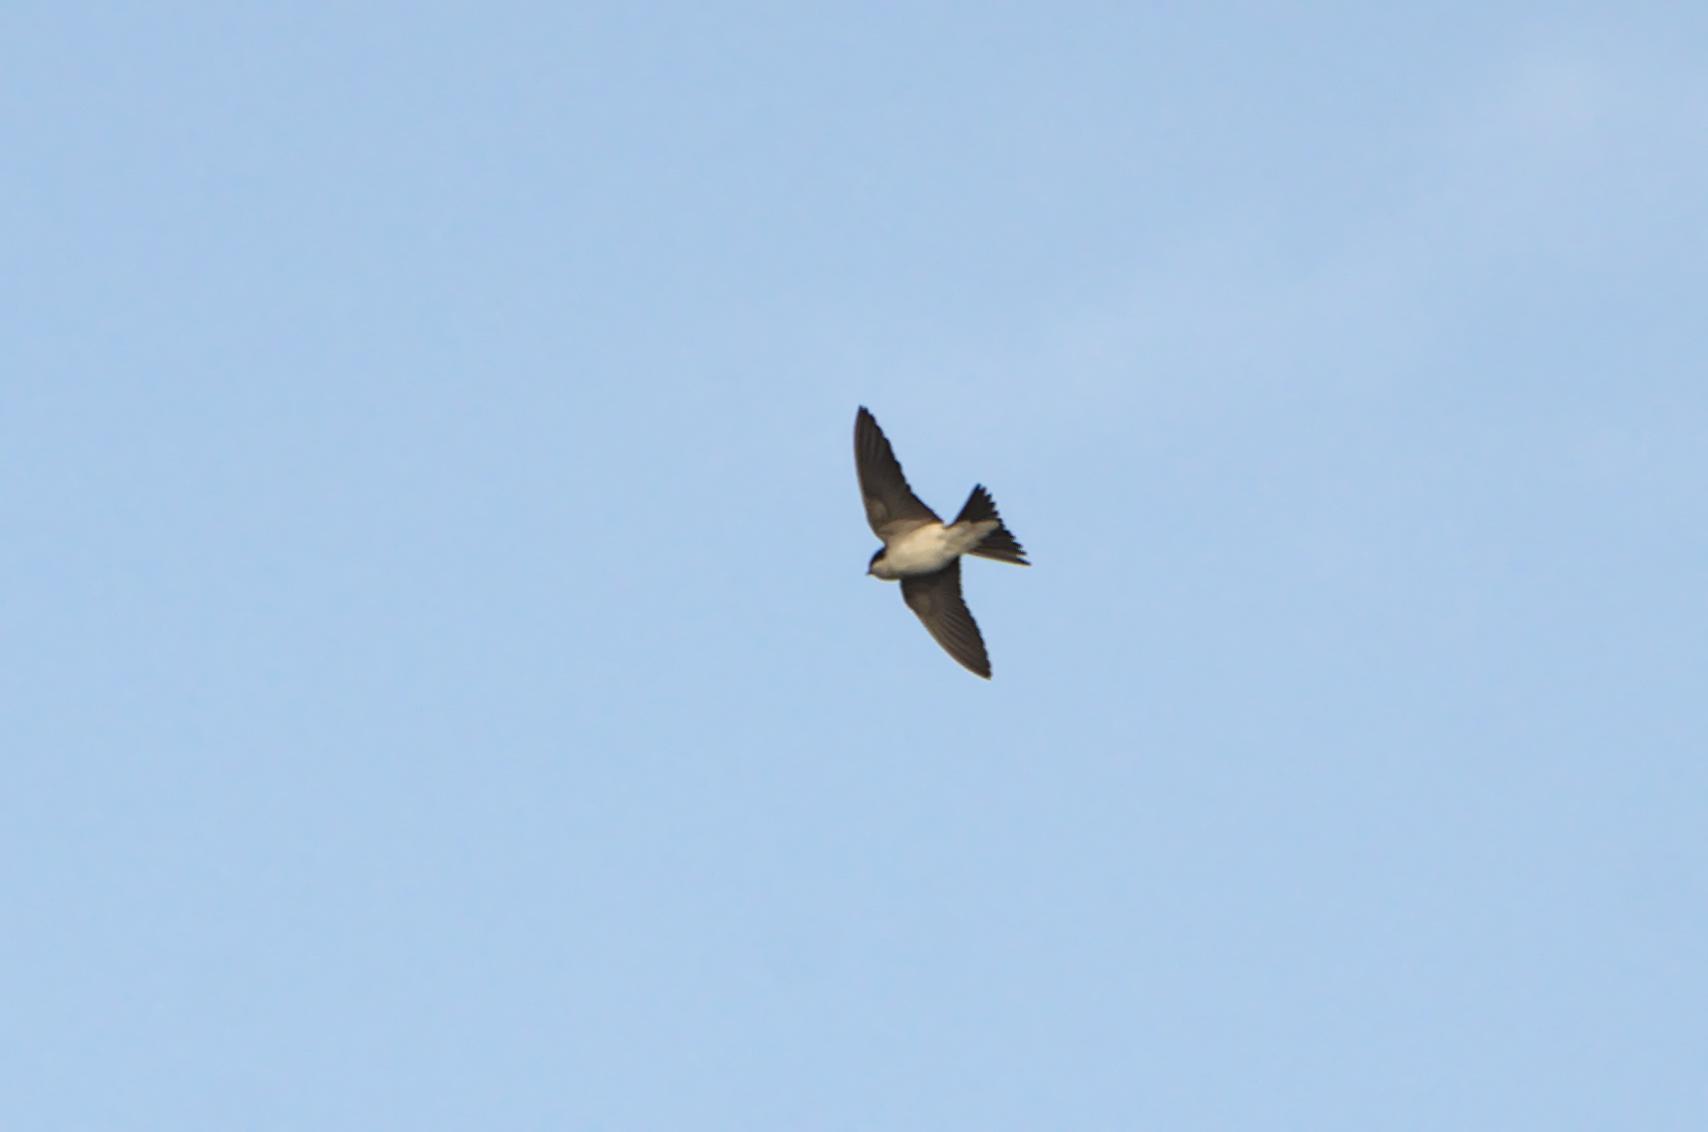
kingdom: Animalia
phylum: Chordata
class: Aves
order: Passeriformes
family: Hirundinidae
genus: Delichon
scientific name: Delichon urbicum
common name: Common house martin
